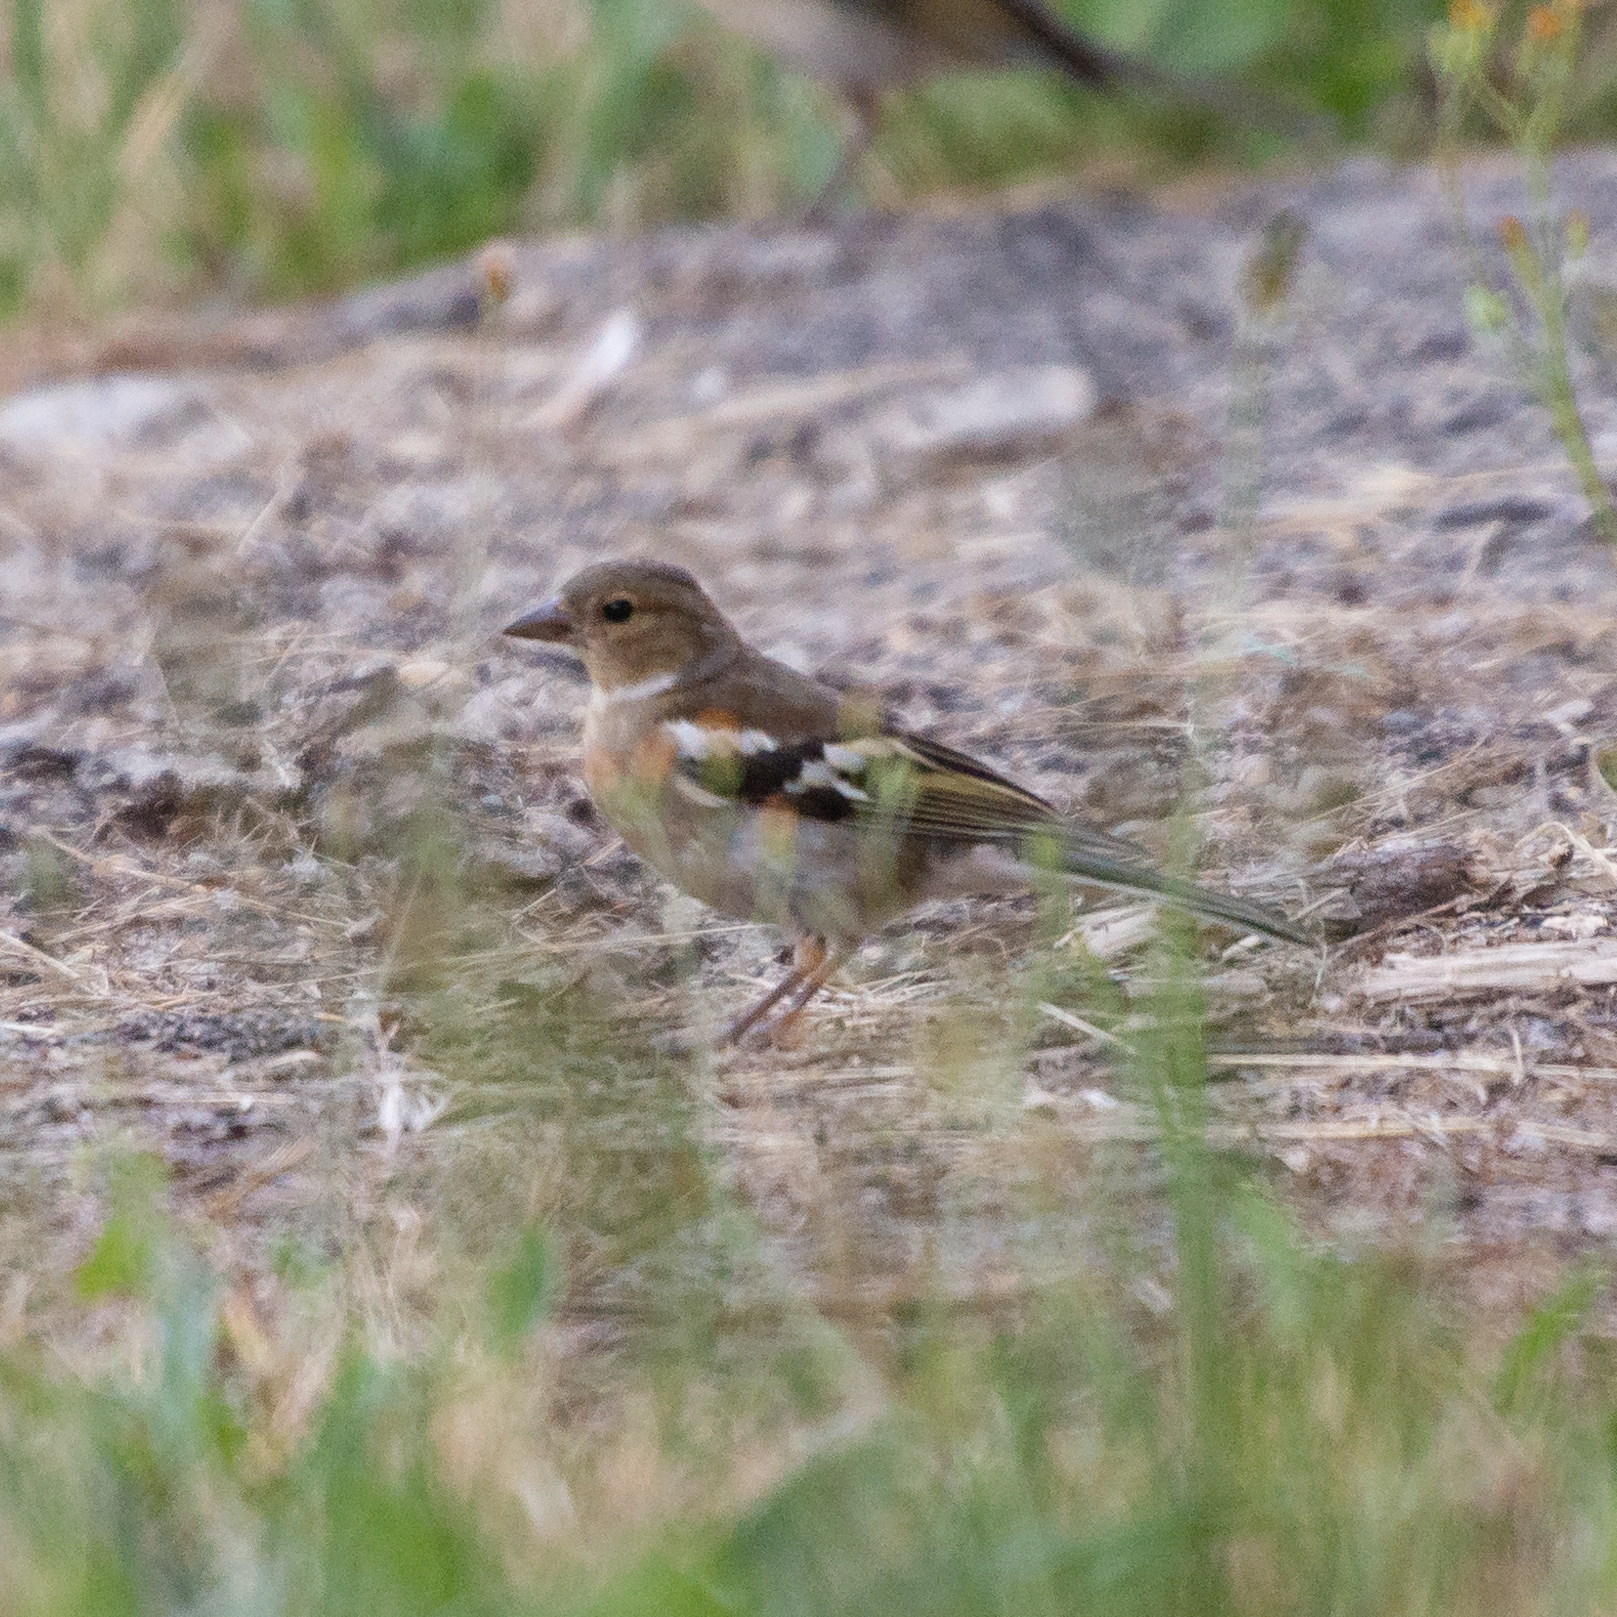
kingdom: Animalia
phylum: Chordata
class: Aves
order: Passeriformes
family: Fringillidae
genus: Fringilla
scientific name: Fringilla coelebs
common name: Common chaffinch
